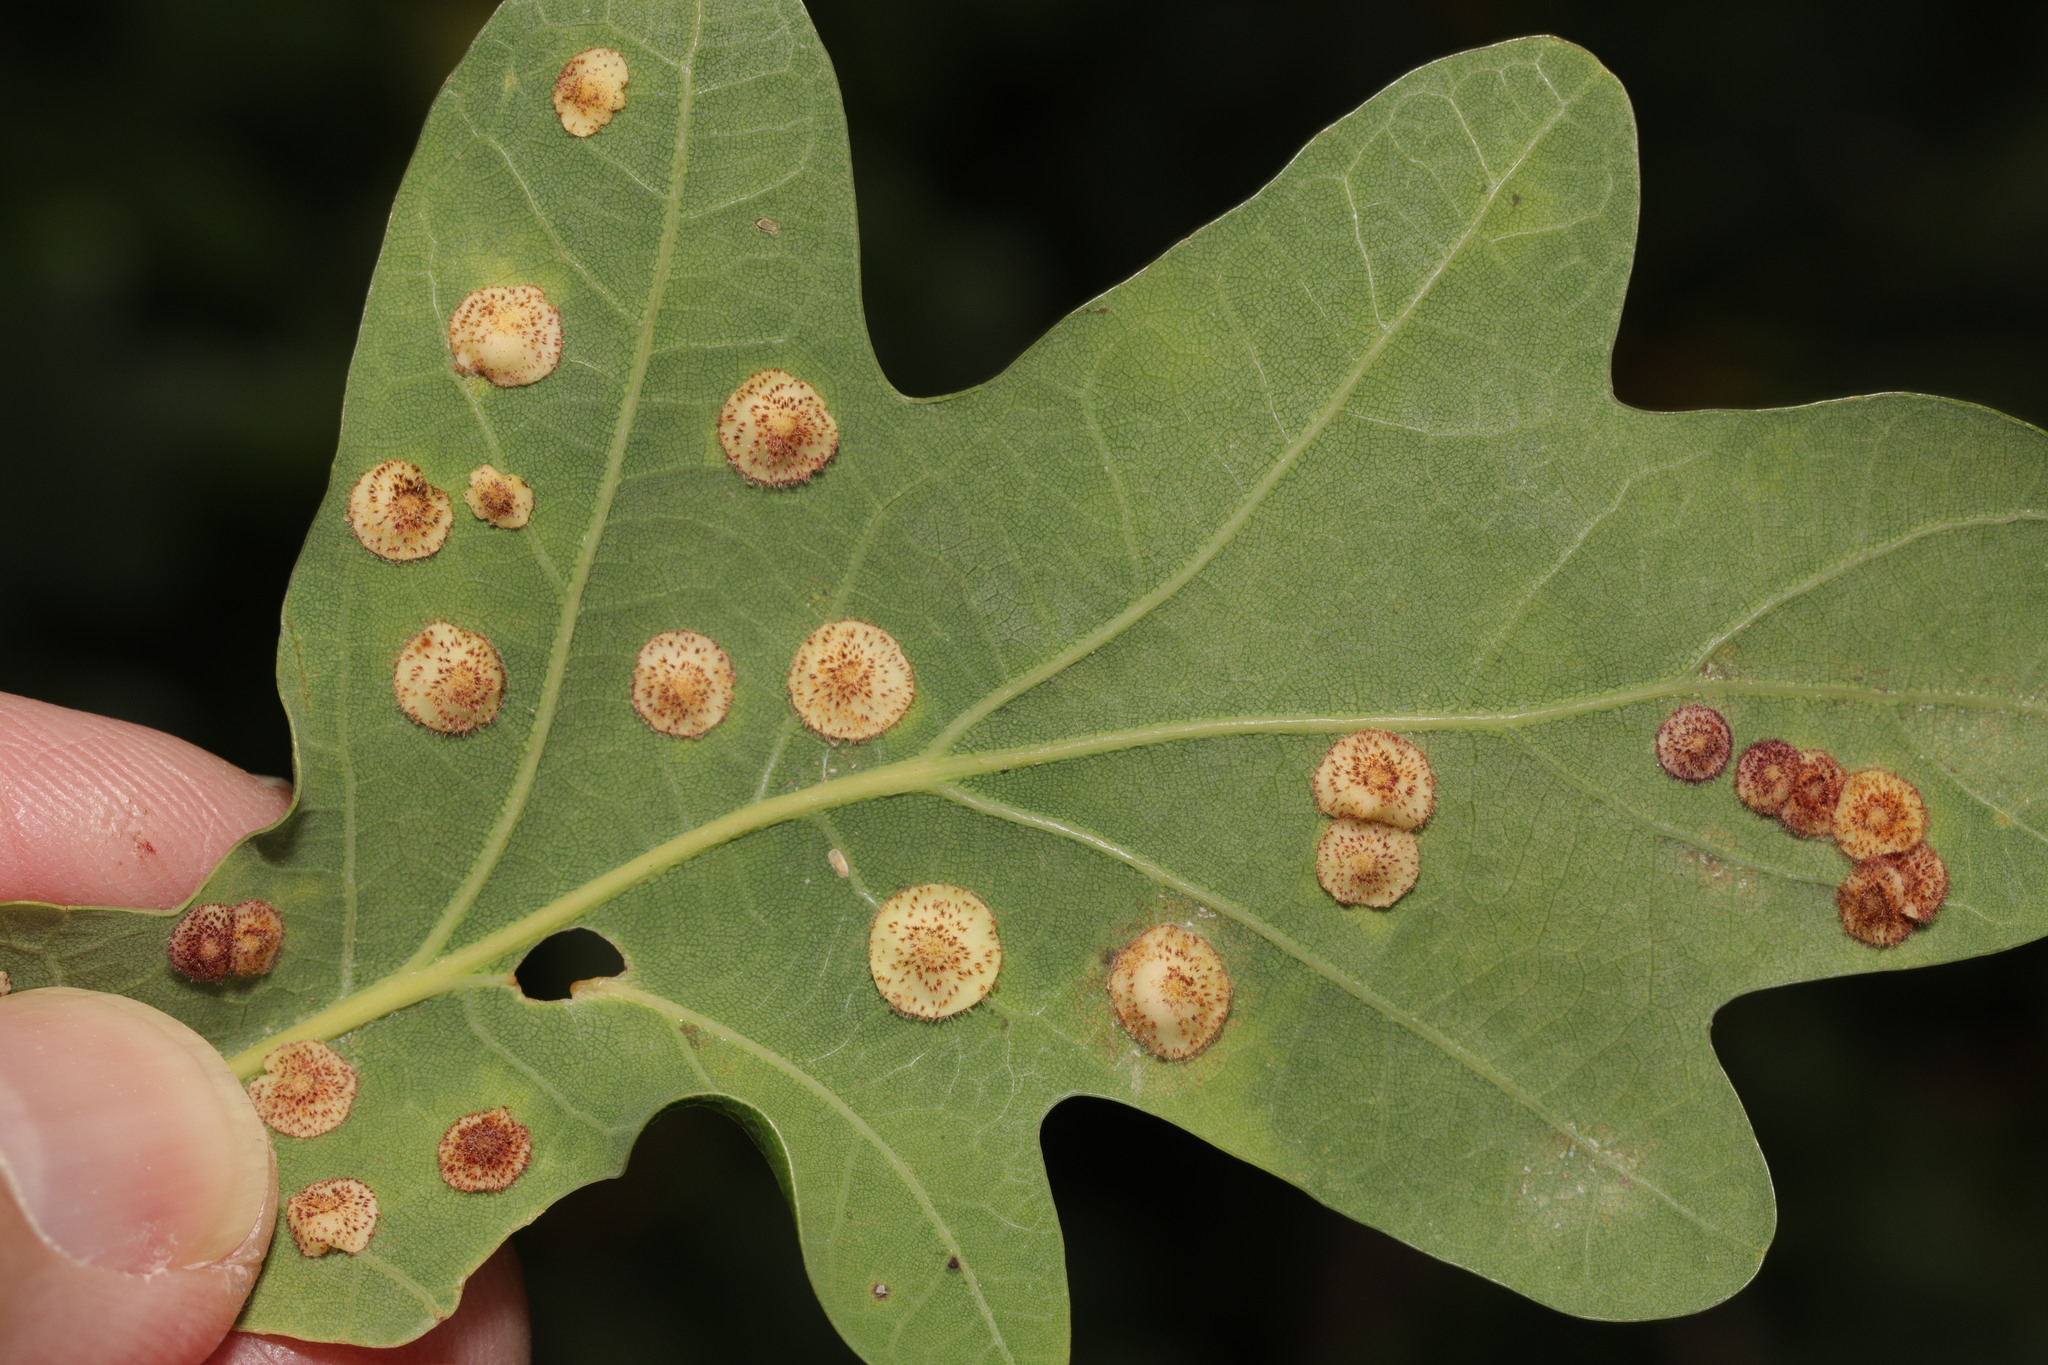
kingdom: Animalia
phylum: Arthropoda
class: Insecta
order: Hymenoptera
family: Cynipidae
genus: Neuroterus
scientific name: Neuroterus quercusbaccarum
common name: Common spangle gall
